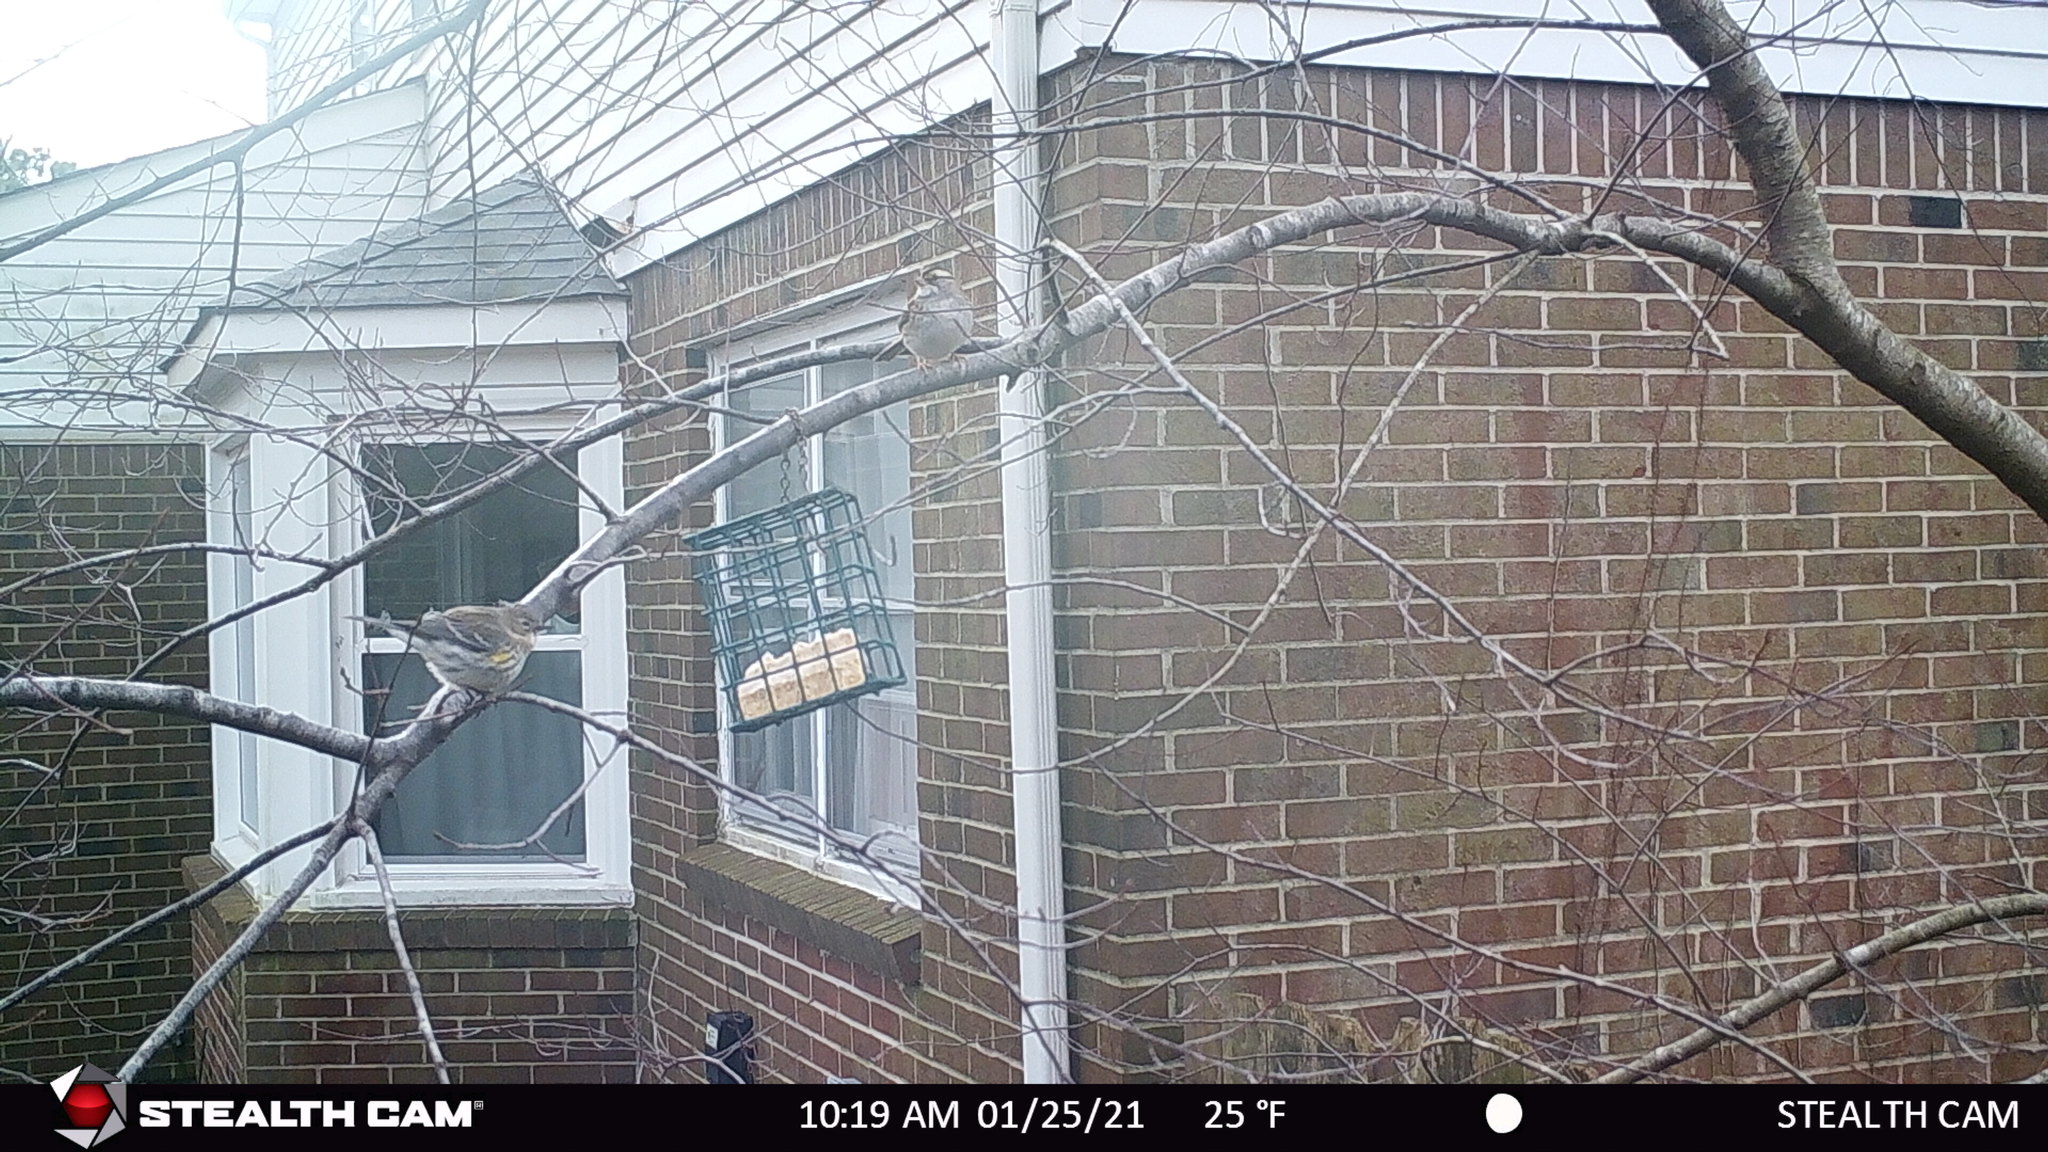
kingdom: Animalia
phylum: Chordata
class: Aves
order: Passeriformes
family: Passerellidae
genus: Zonotrichia
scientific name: Zonotrichia albicollis
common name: White-throated sparrow
